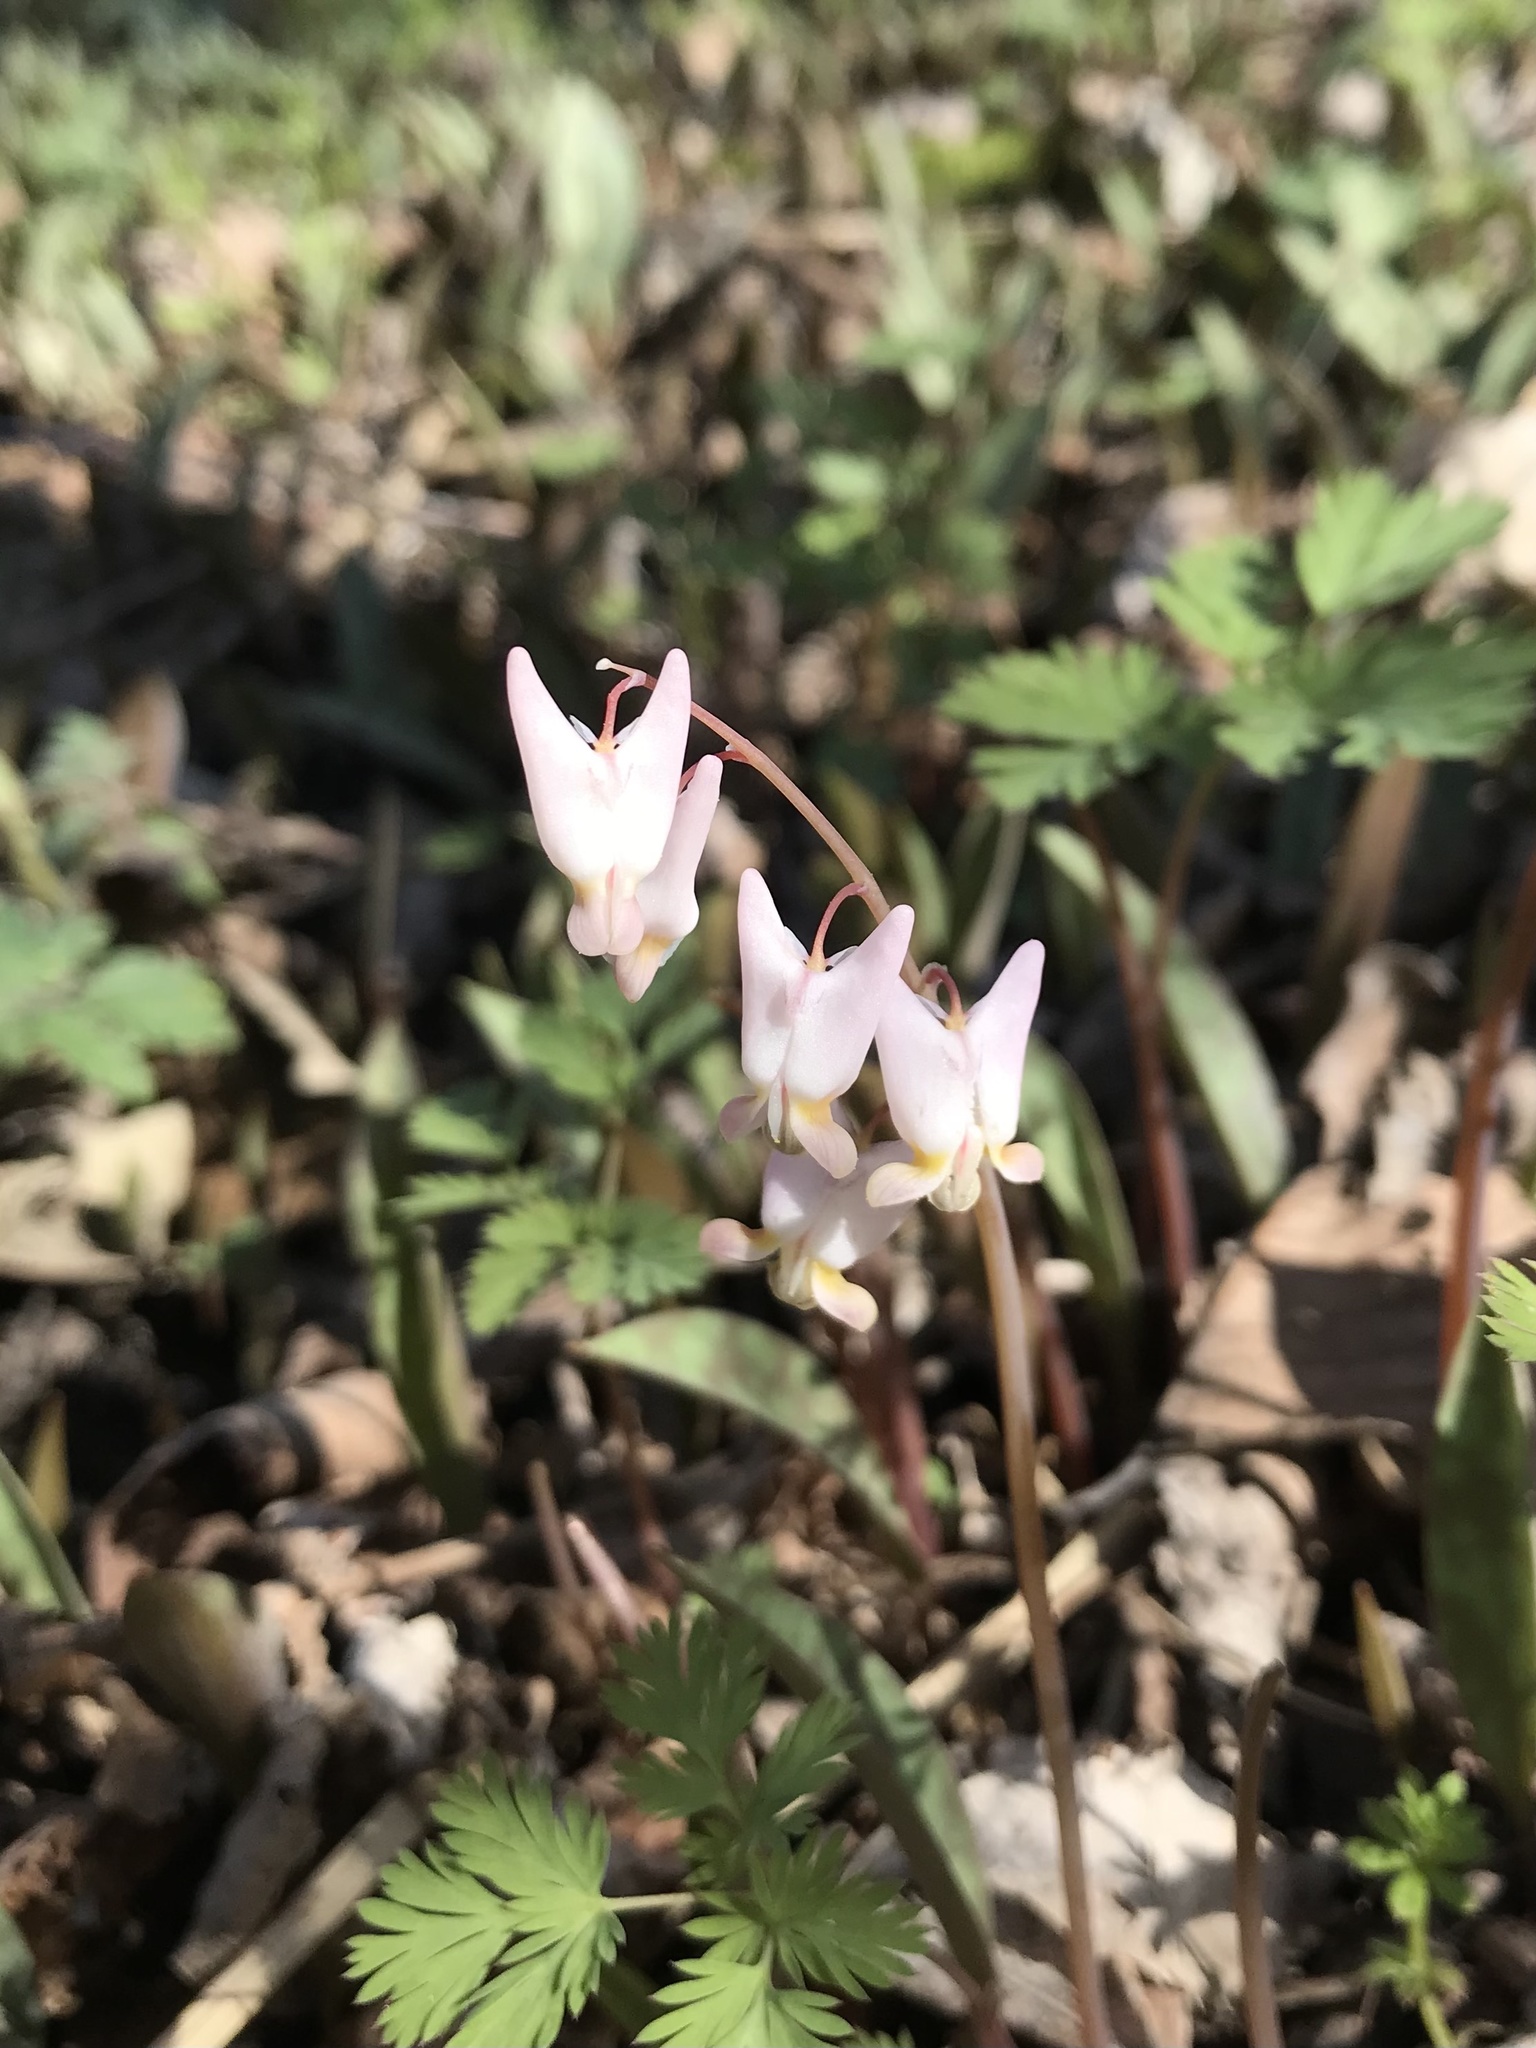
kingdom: Plantae
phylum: Tracheophyta
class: Magnoliopsida
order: Ranunculales
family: Papaveraceae
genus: Dicentra
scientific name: Dicentra cucullaria
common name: Dutchman's breeches
